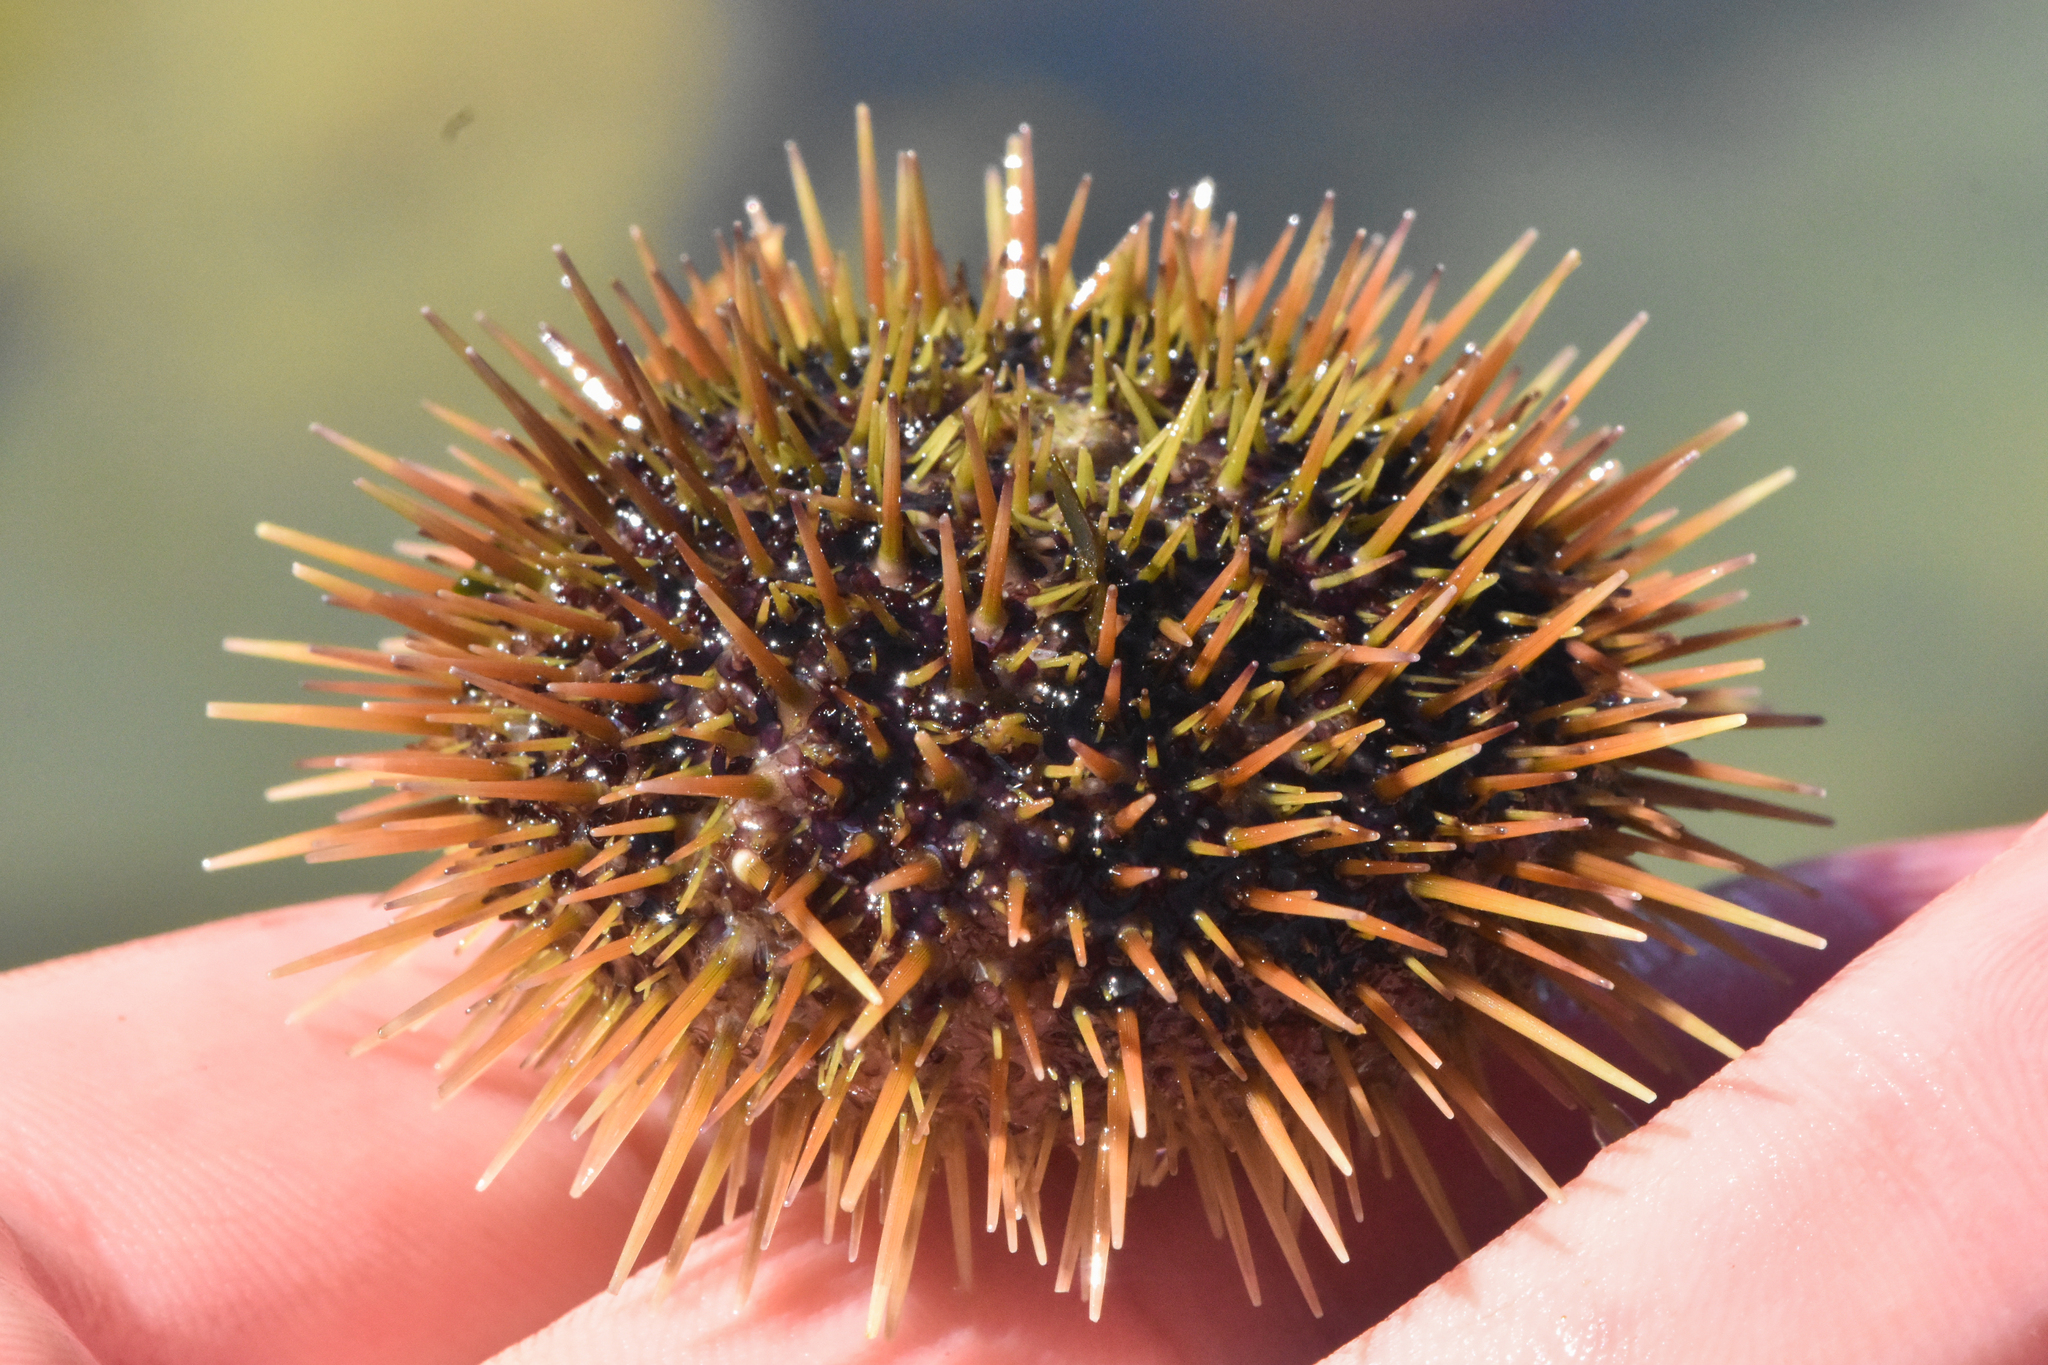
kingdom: Animalia
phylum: Echinodermata
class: Echinoidea
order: Camarodonta
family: Strongylocentrotidae
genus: Strongylocentrotus
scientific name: Strongylocentrotus droebachiensis
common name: Northern sea urchin
